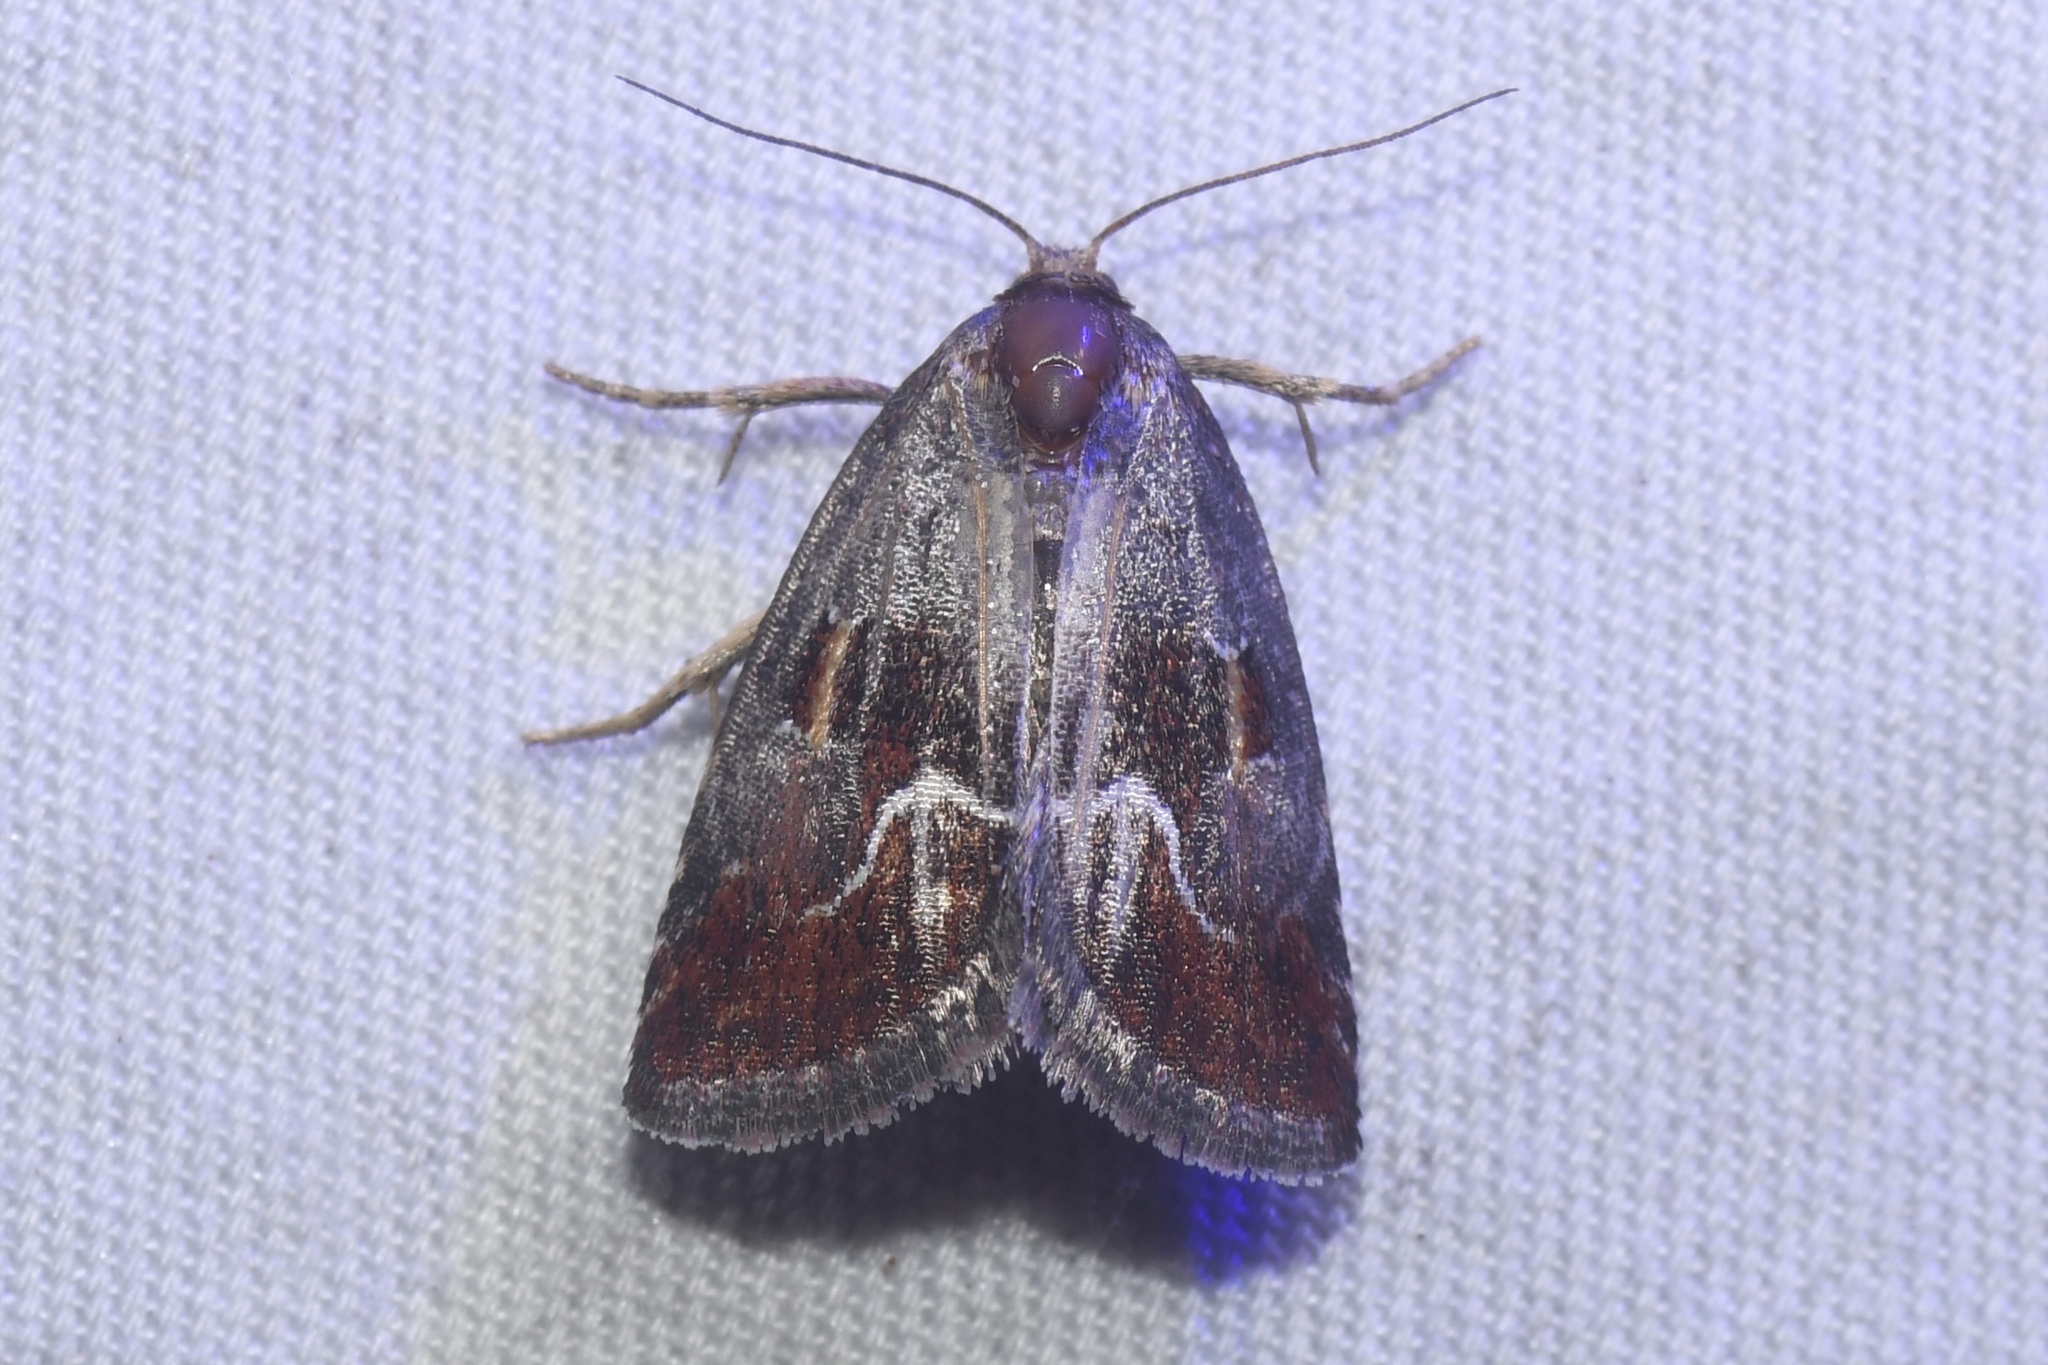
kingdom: Animalia
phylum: Arthropoda
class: Insecta
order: Lepidoptera
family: Noctuidae
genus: Deltote
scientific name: Deltote bellicula
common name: Bog glyph
